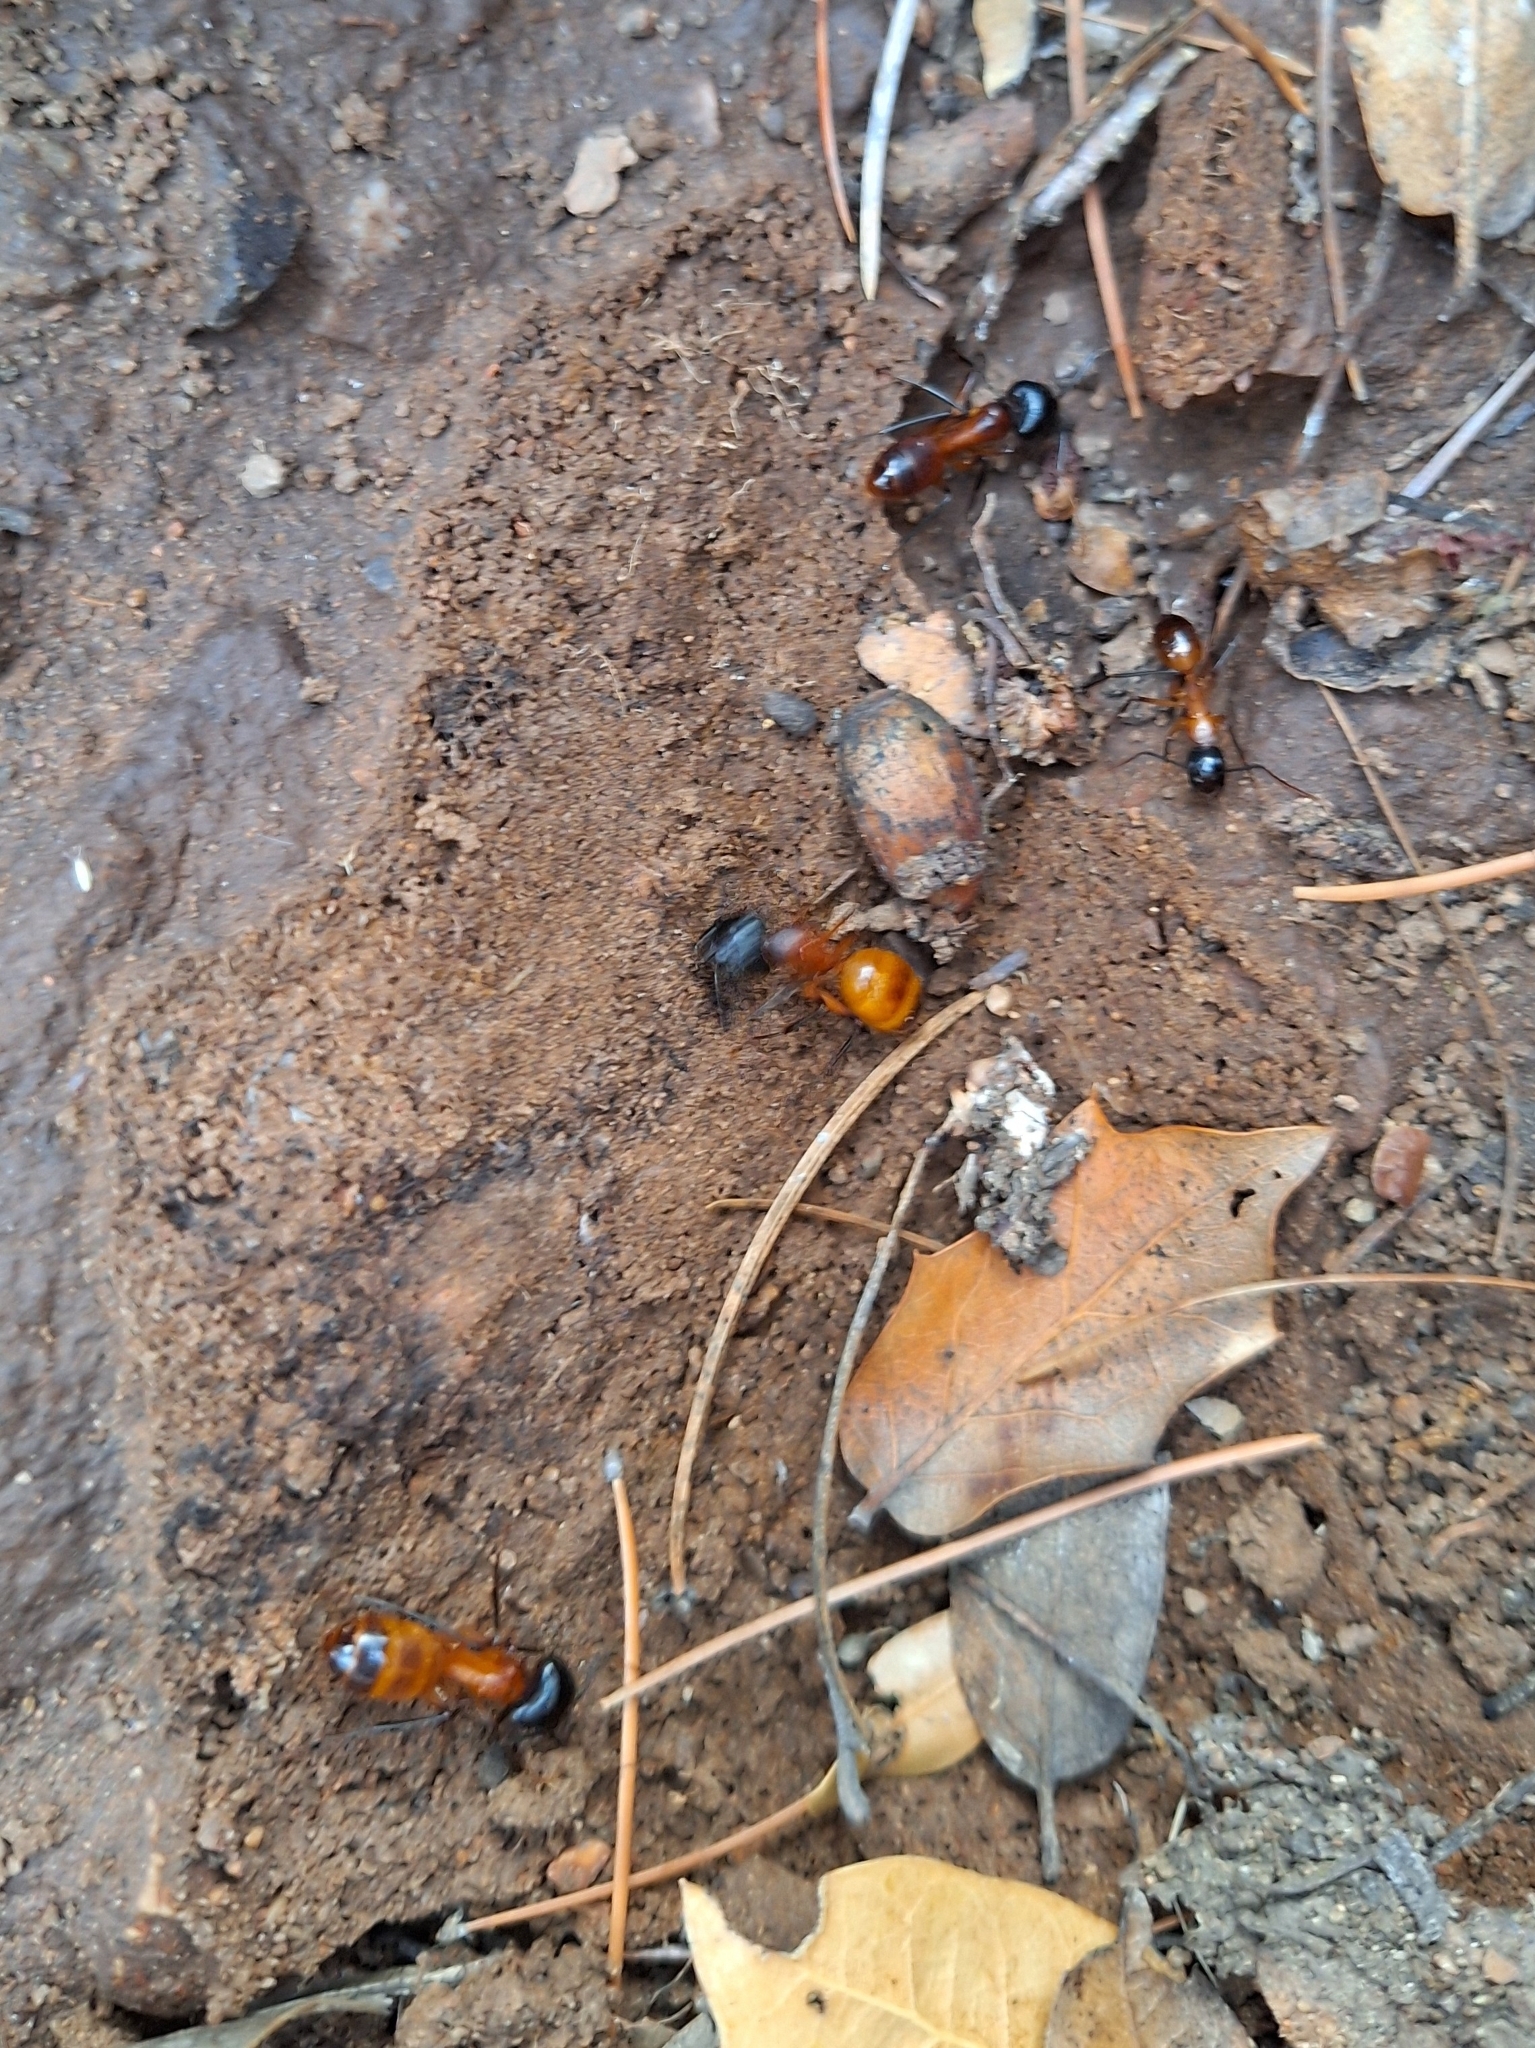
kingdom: Animalia
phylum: Arthropoda
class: Insecta
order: Hymenoptera
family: Formicidae
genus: Camponotus
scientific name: Camponotus ocreatus
